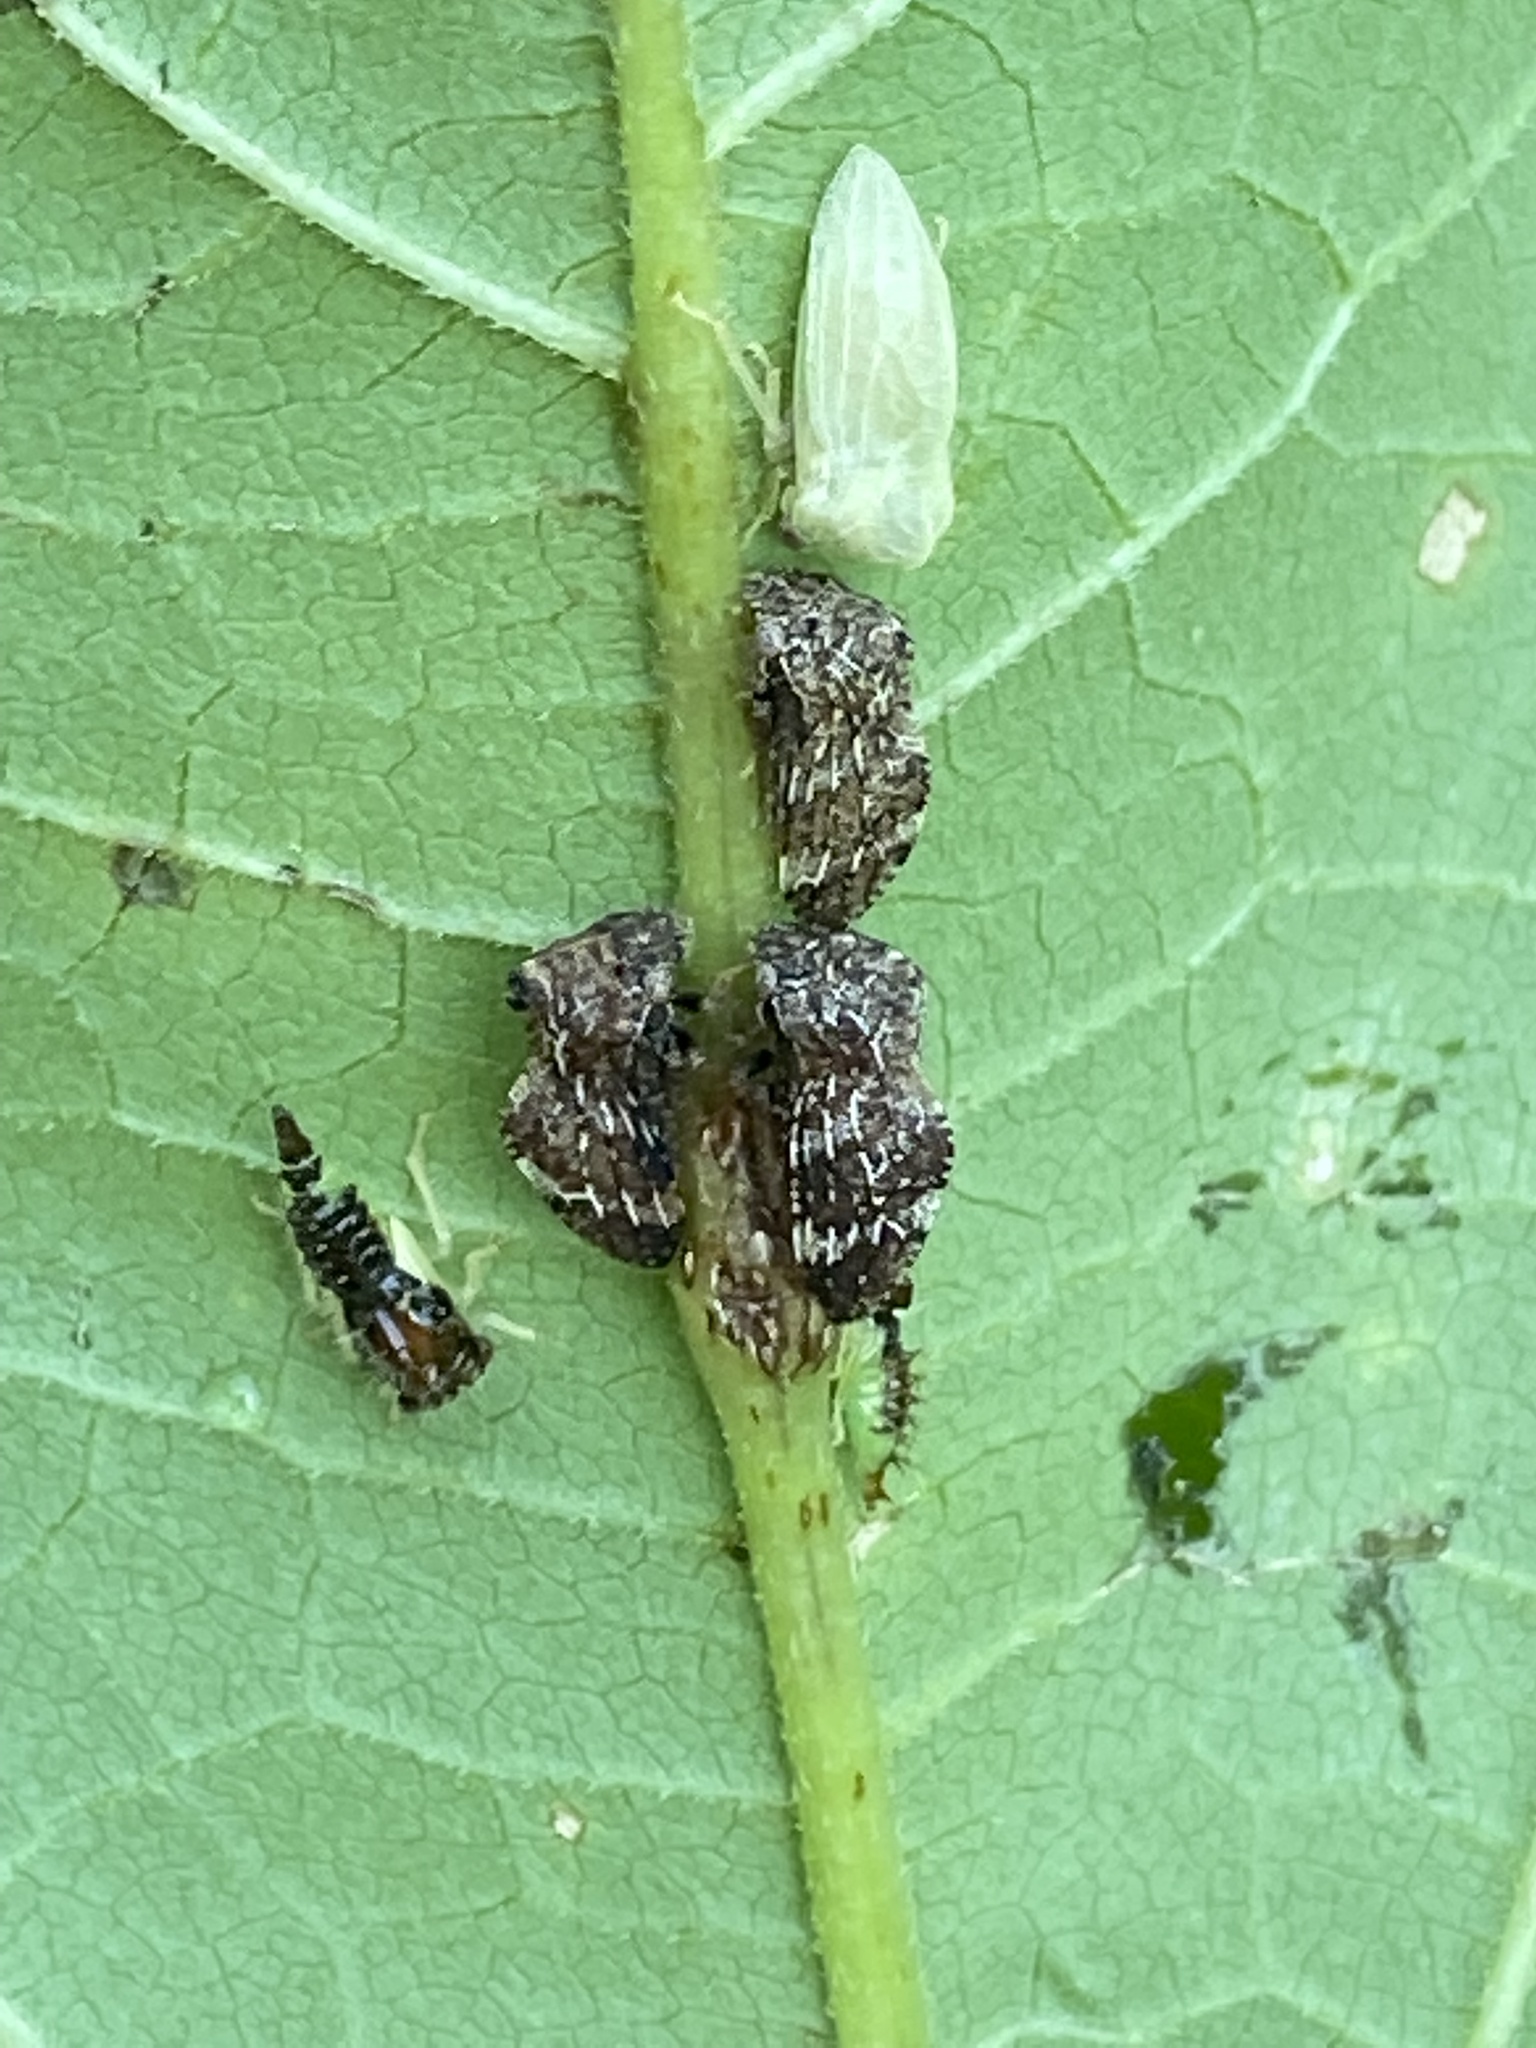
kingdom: Animalia
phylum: Arthropoda
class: Insecta
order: Hemiptera
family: Membracidae
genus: Publilia
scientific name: Publilia concava
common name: Aster treehopper
